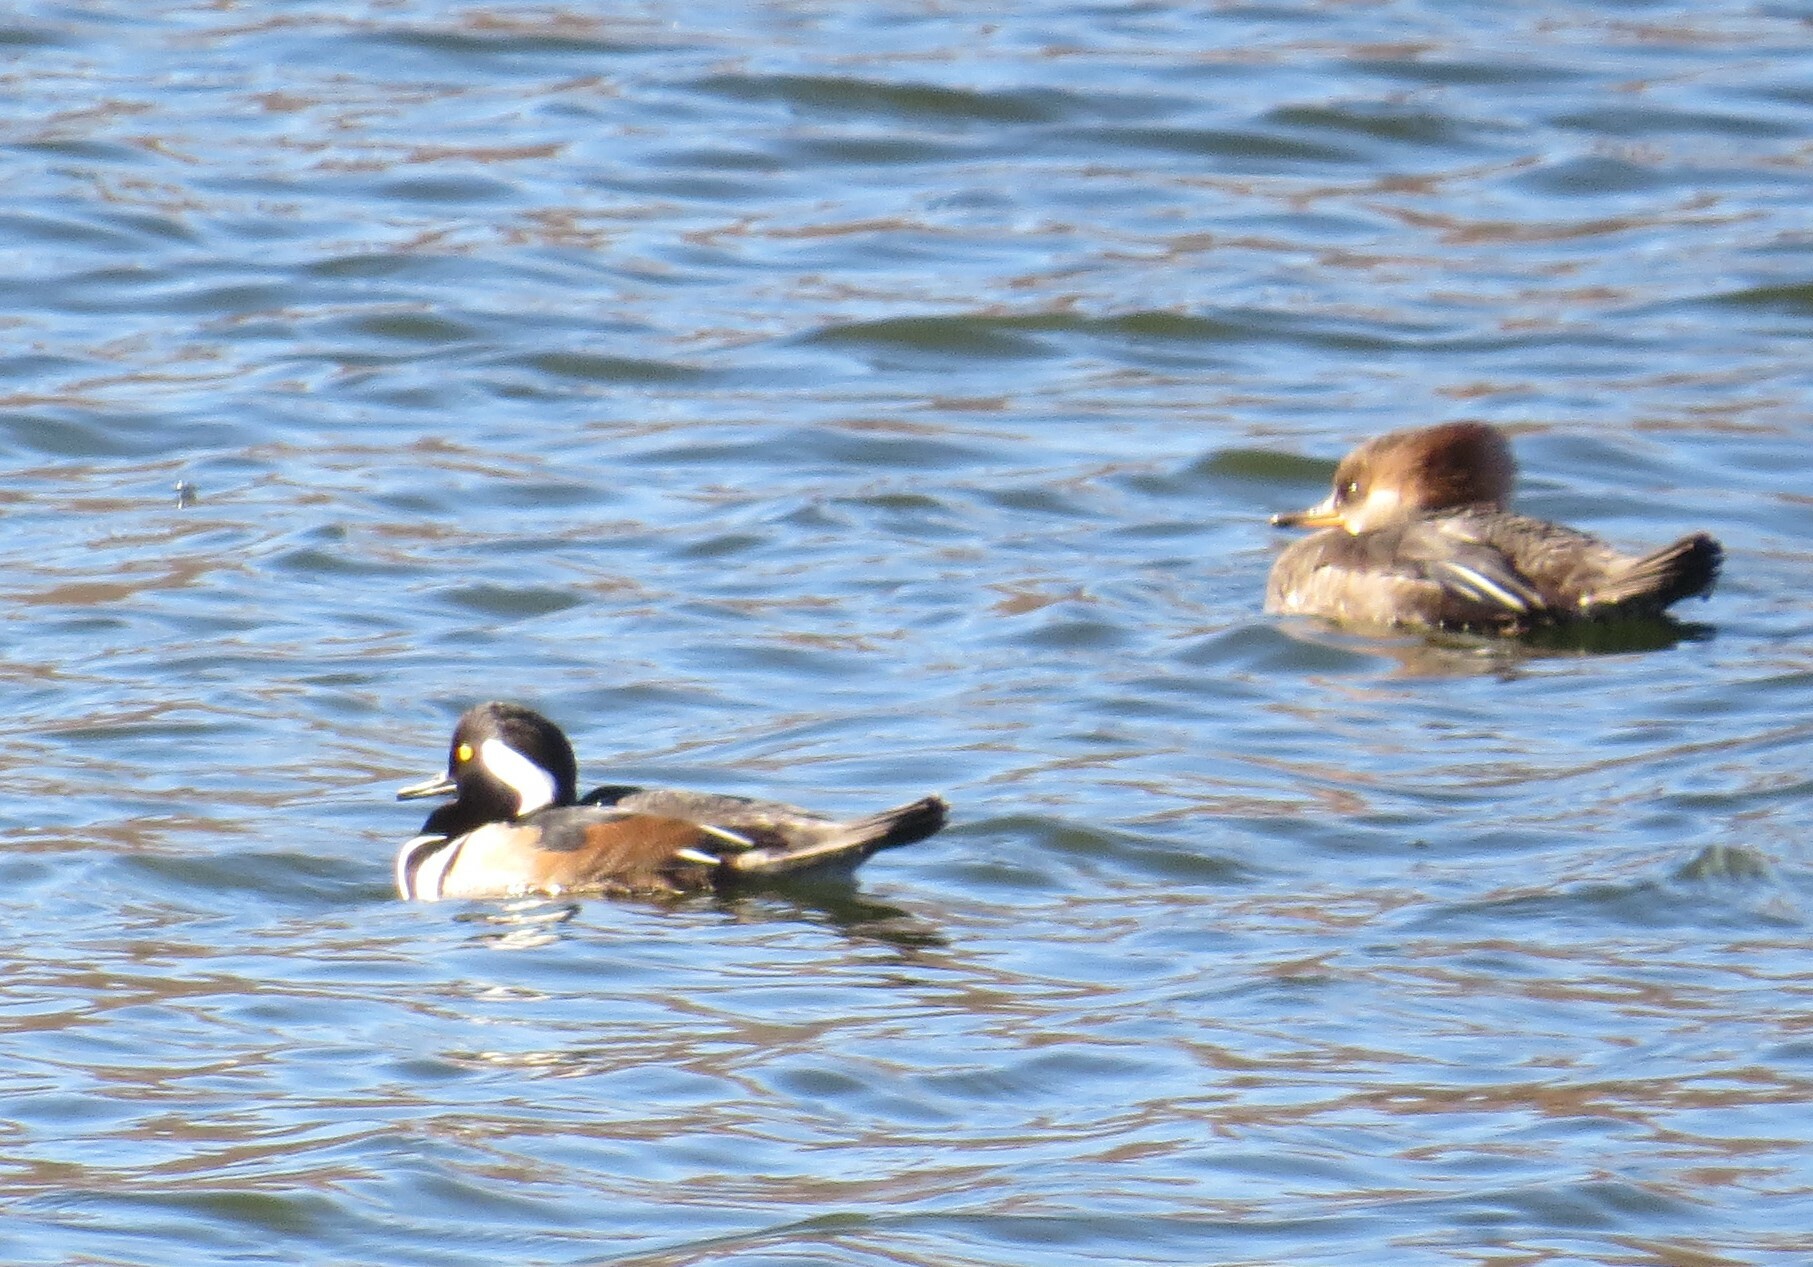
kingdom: Animalia
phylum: Chordata
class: Aves
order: Anseriformes
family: Anatidae
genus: Lophodytes
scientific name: Lophodytes cucullatus
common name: Hooded merganser
